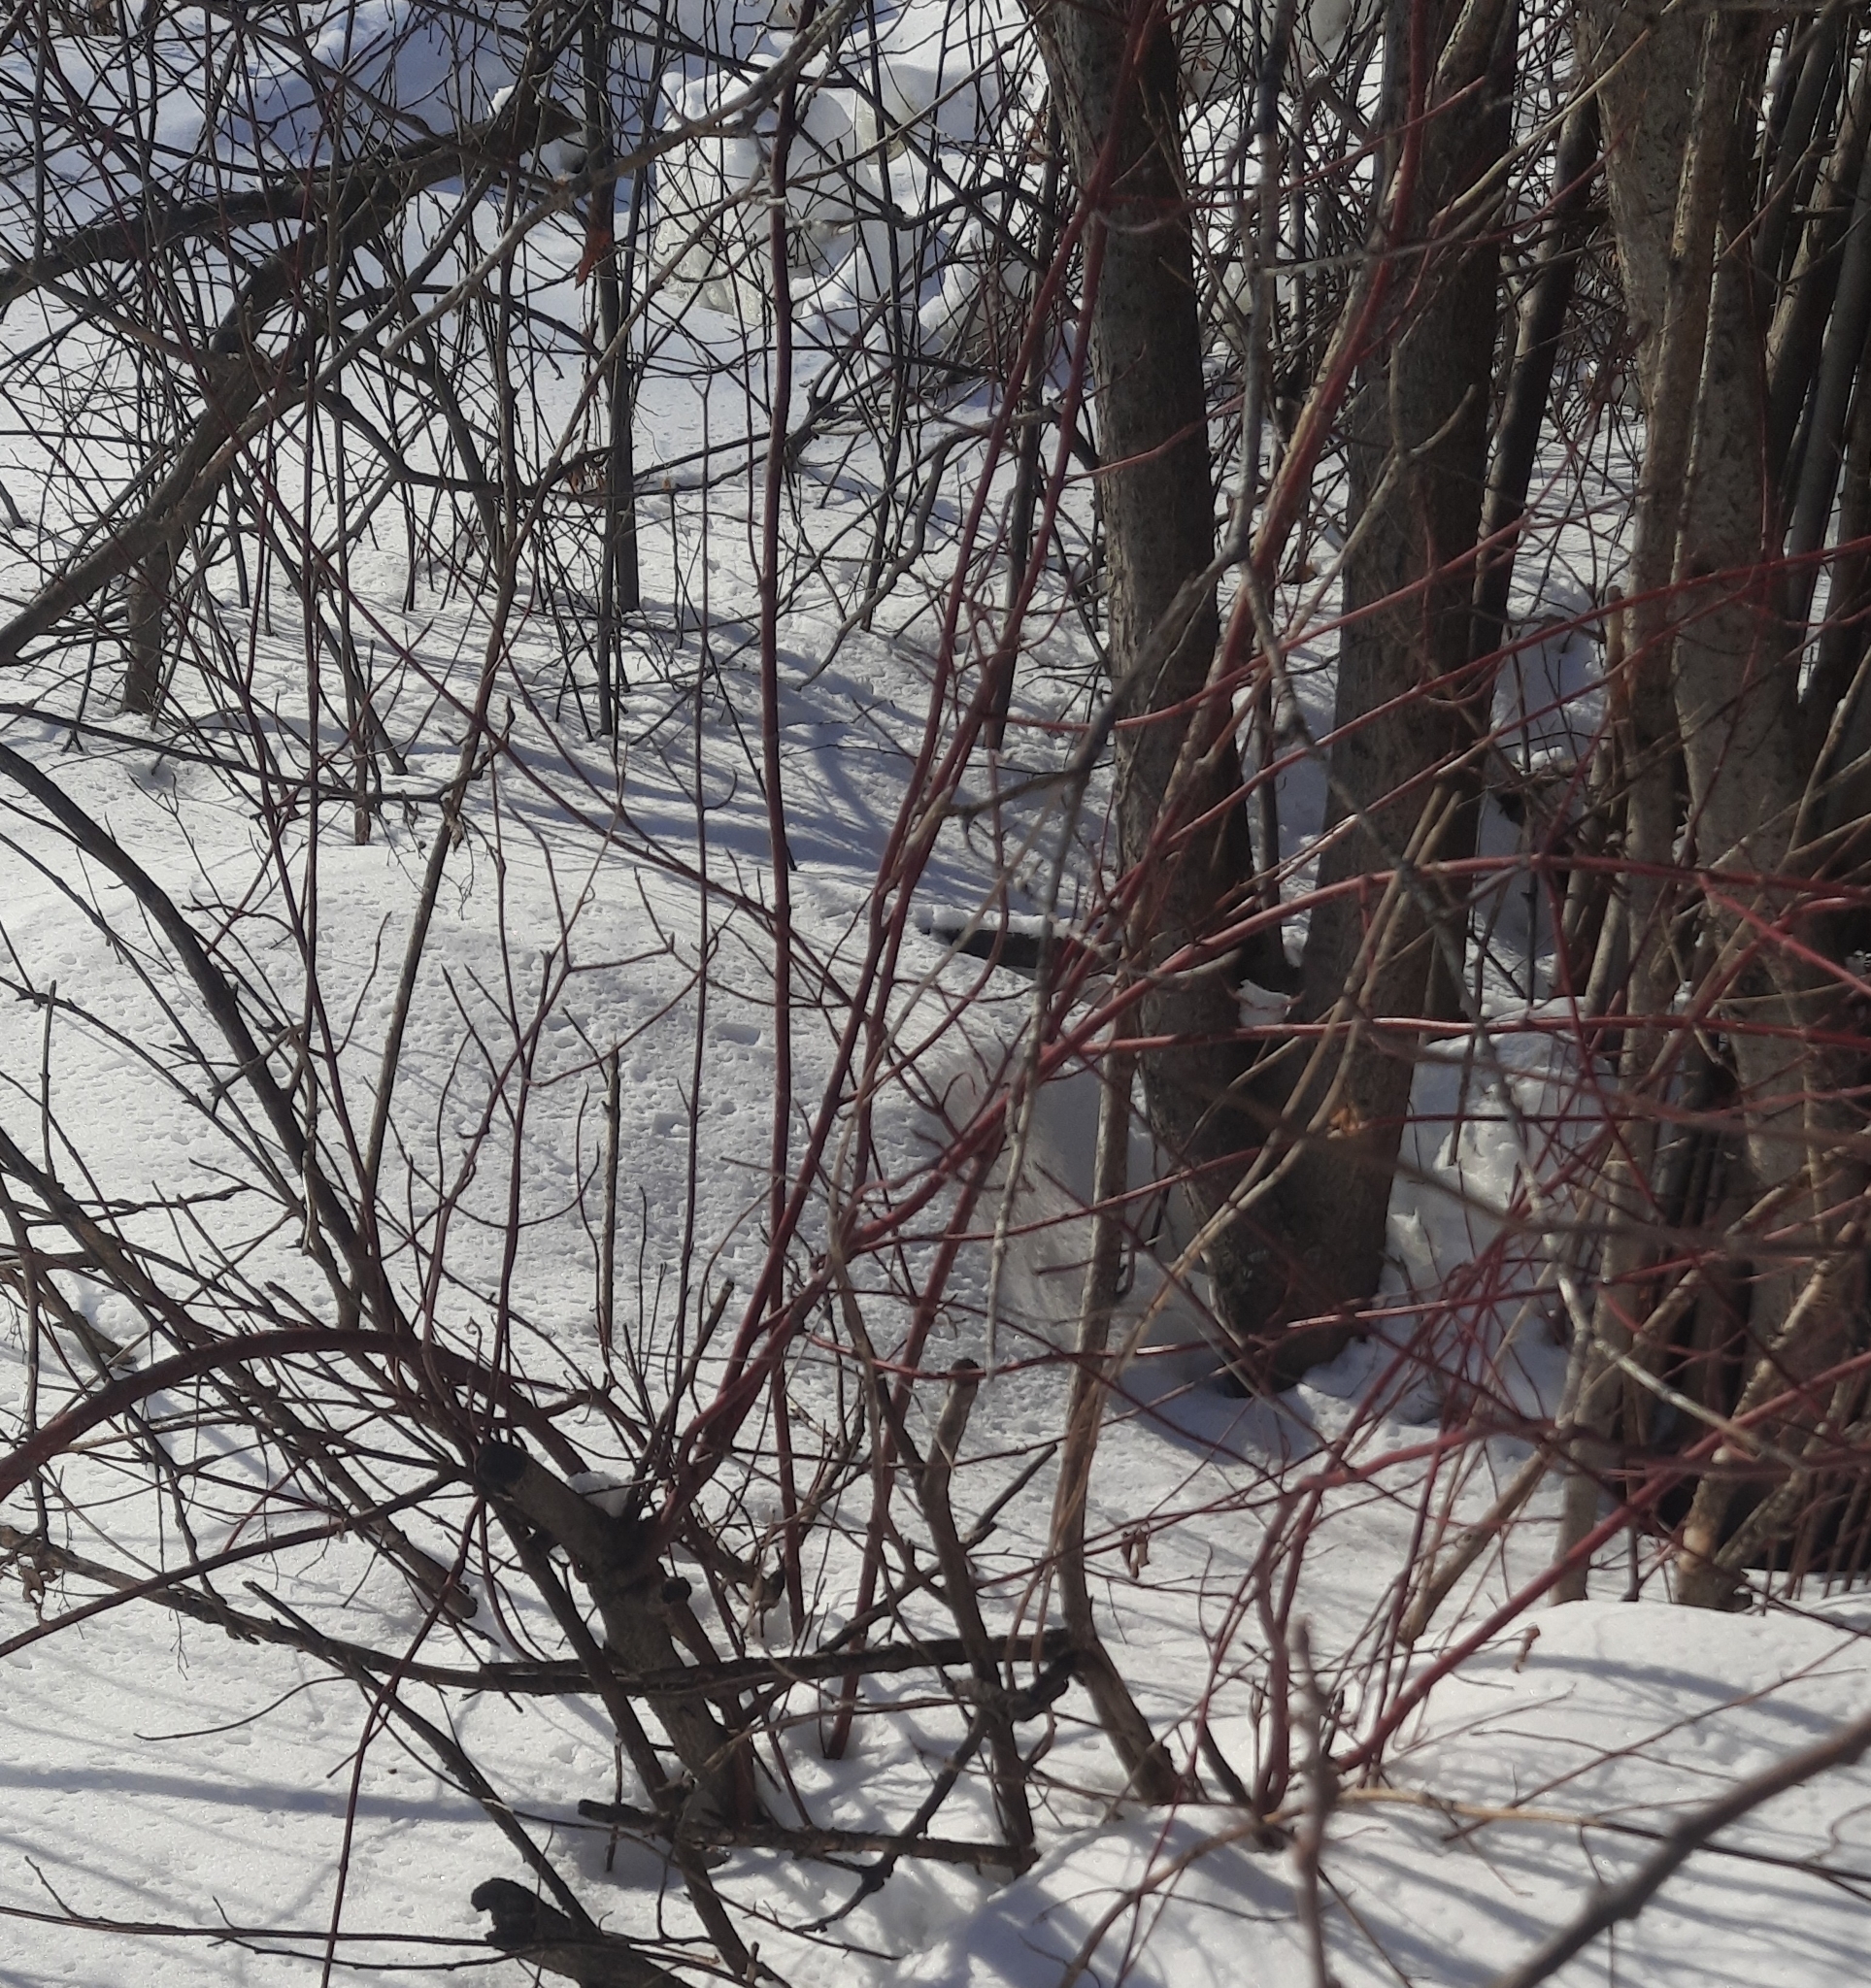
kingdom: Plantae
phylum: Tracheophyta
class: Magnoliopsida
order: Cornales
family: Cornaceae
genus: Cornus
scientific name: Cornus alba
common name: White dogwood
